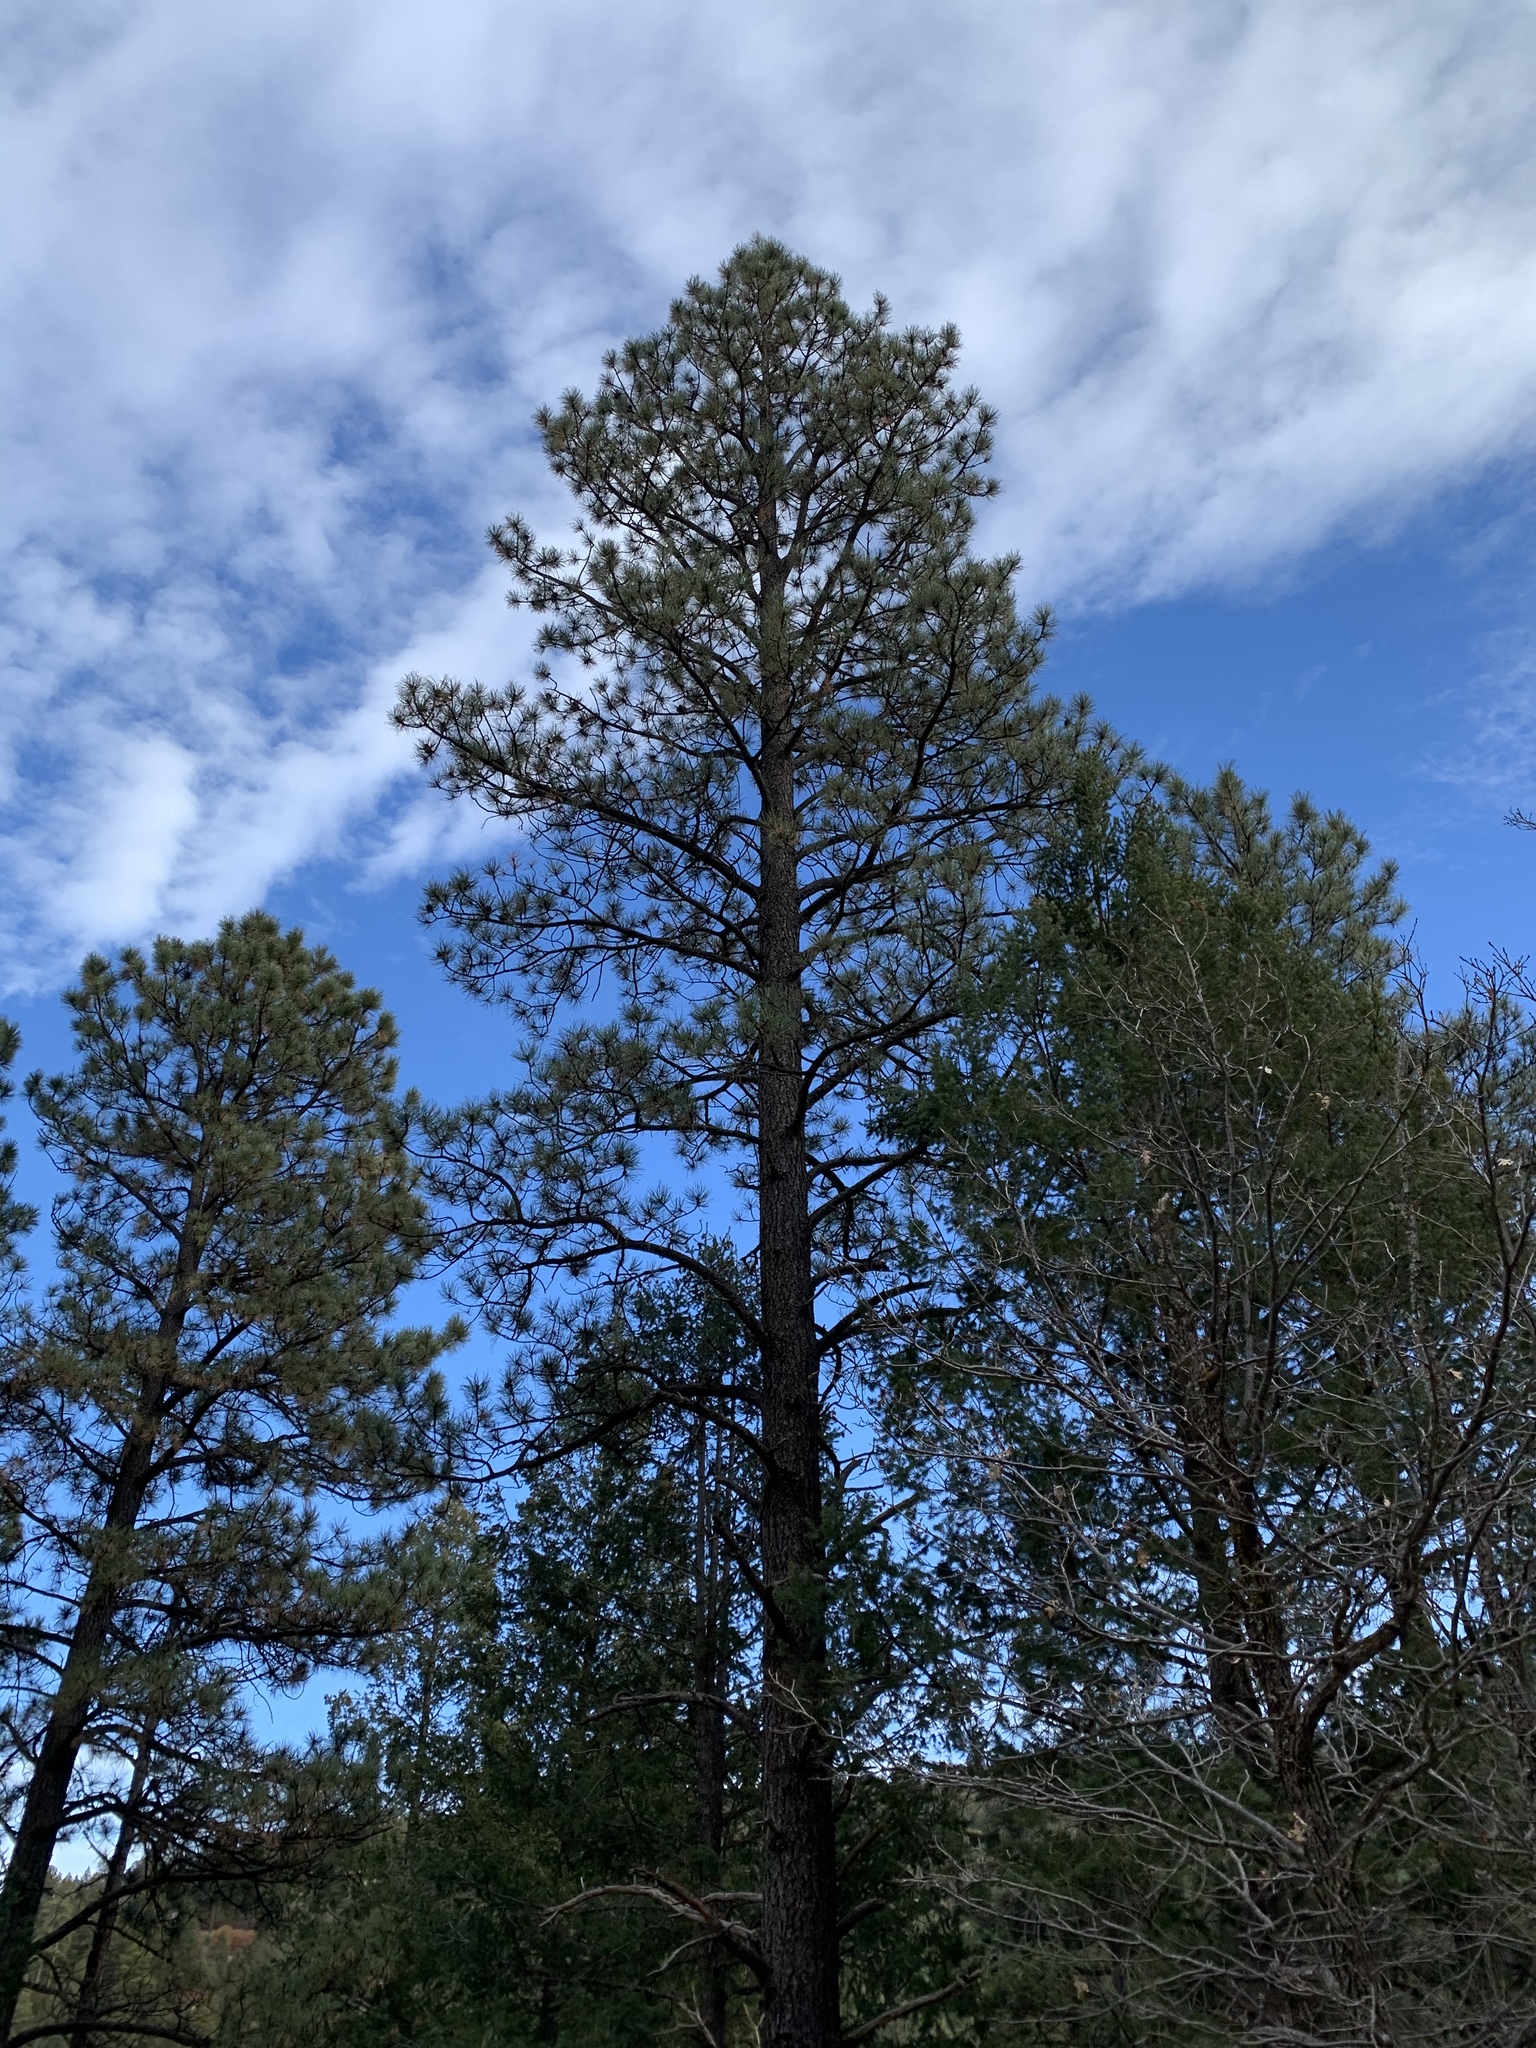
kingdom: Plantae
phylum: Tracheophyta
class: Pinopsida
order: Pinales
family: Pinaceae
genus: Pinus
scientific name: Pinus ponderosa
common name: Western yellow-pine
